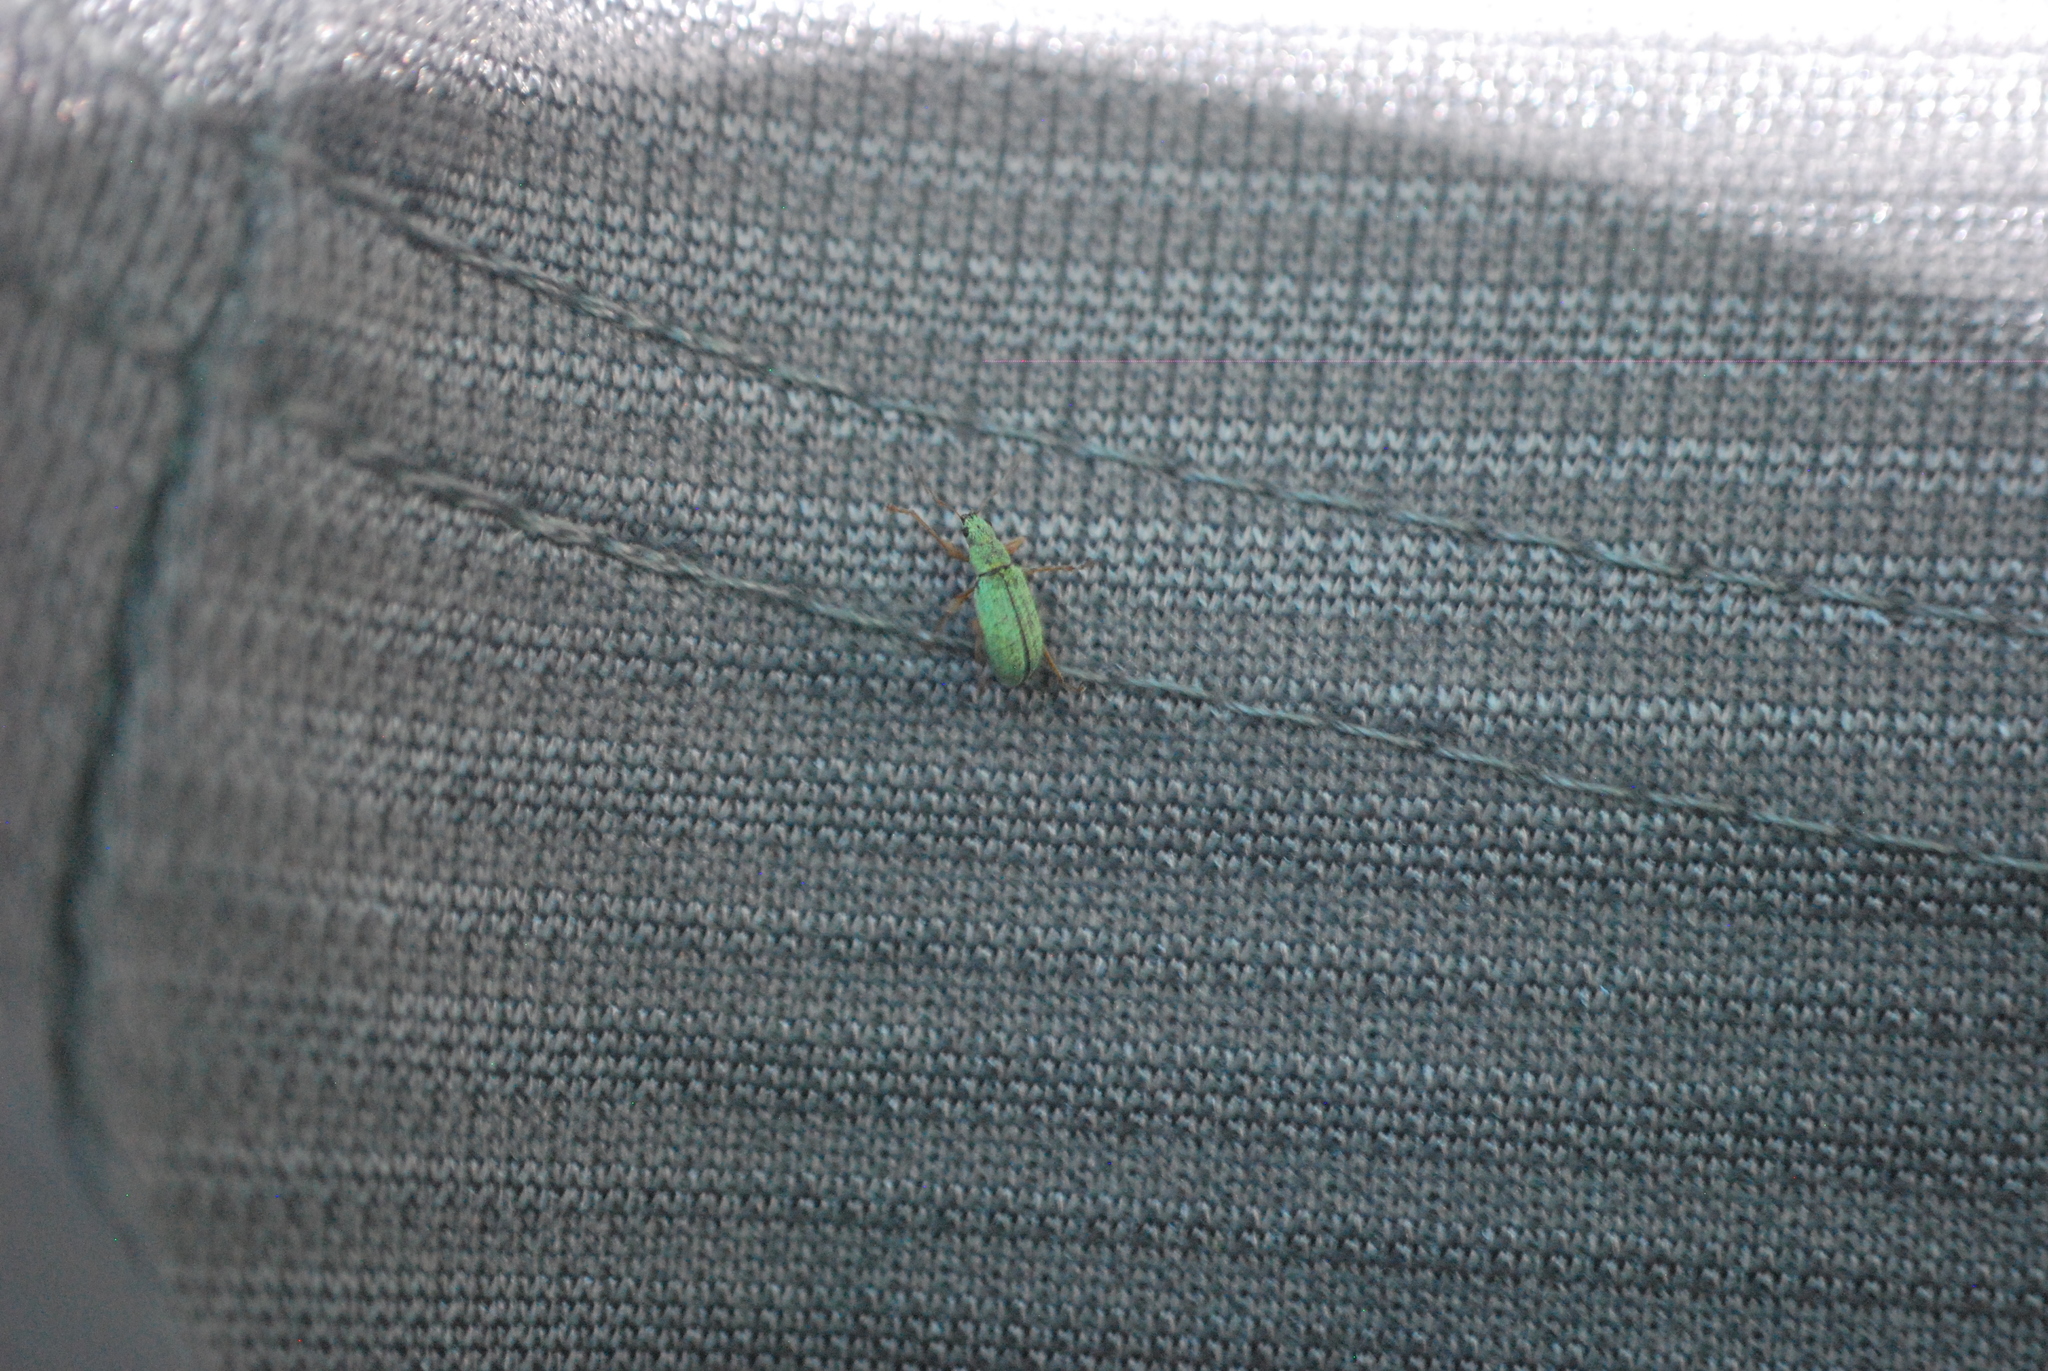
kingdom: Animalia
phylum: Arthropoda
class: Insecta
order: Coleoptera
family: Curculionidae
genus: Polydrusus
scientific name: Polydrusus impressifrons
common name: Weevil
